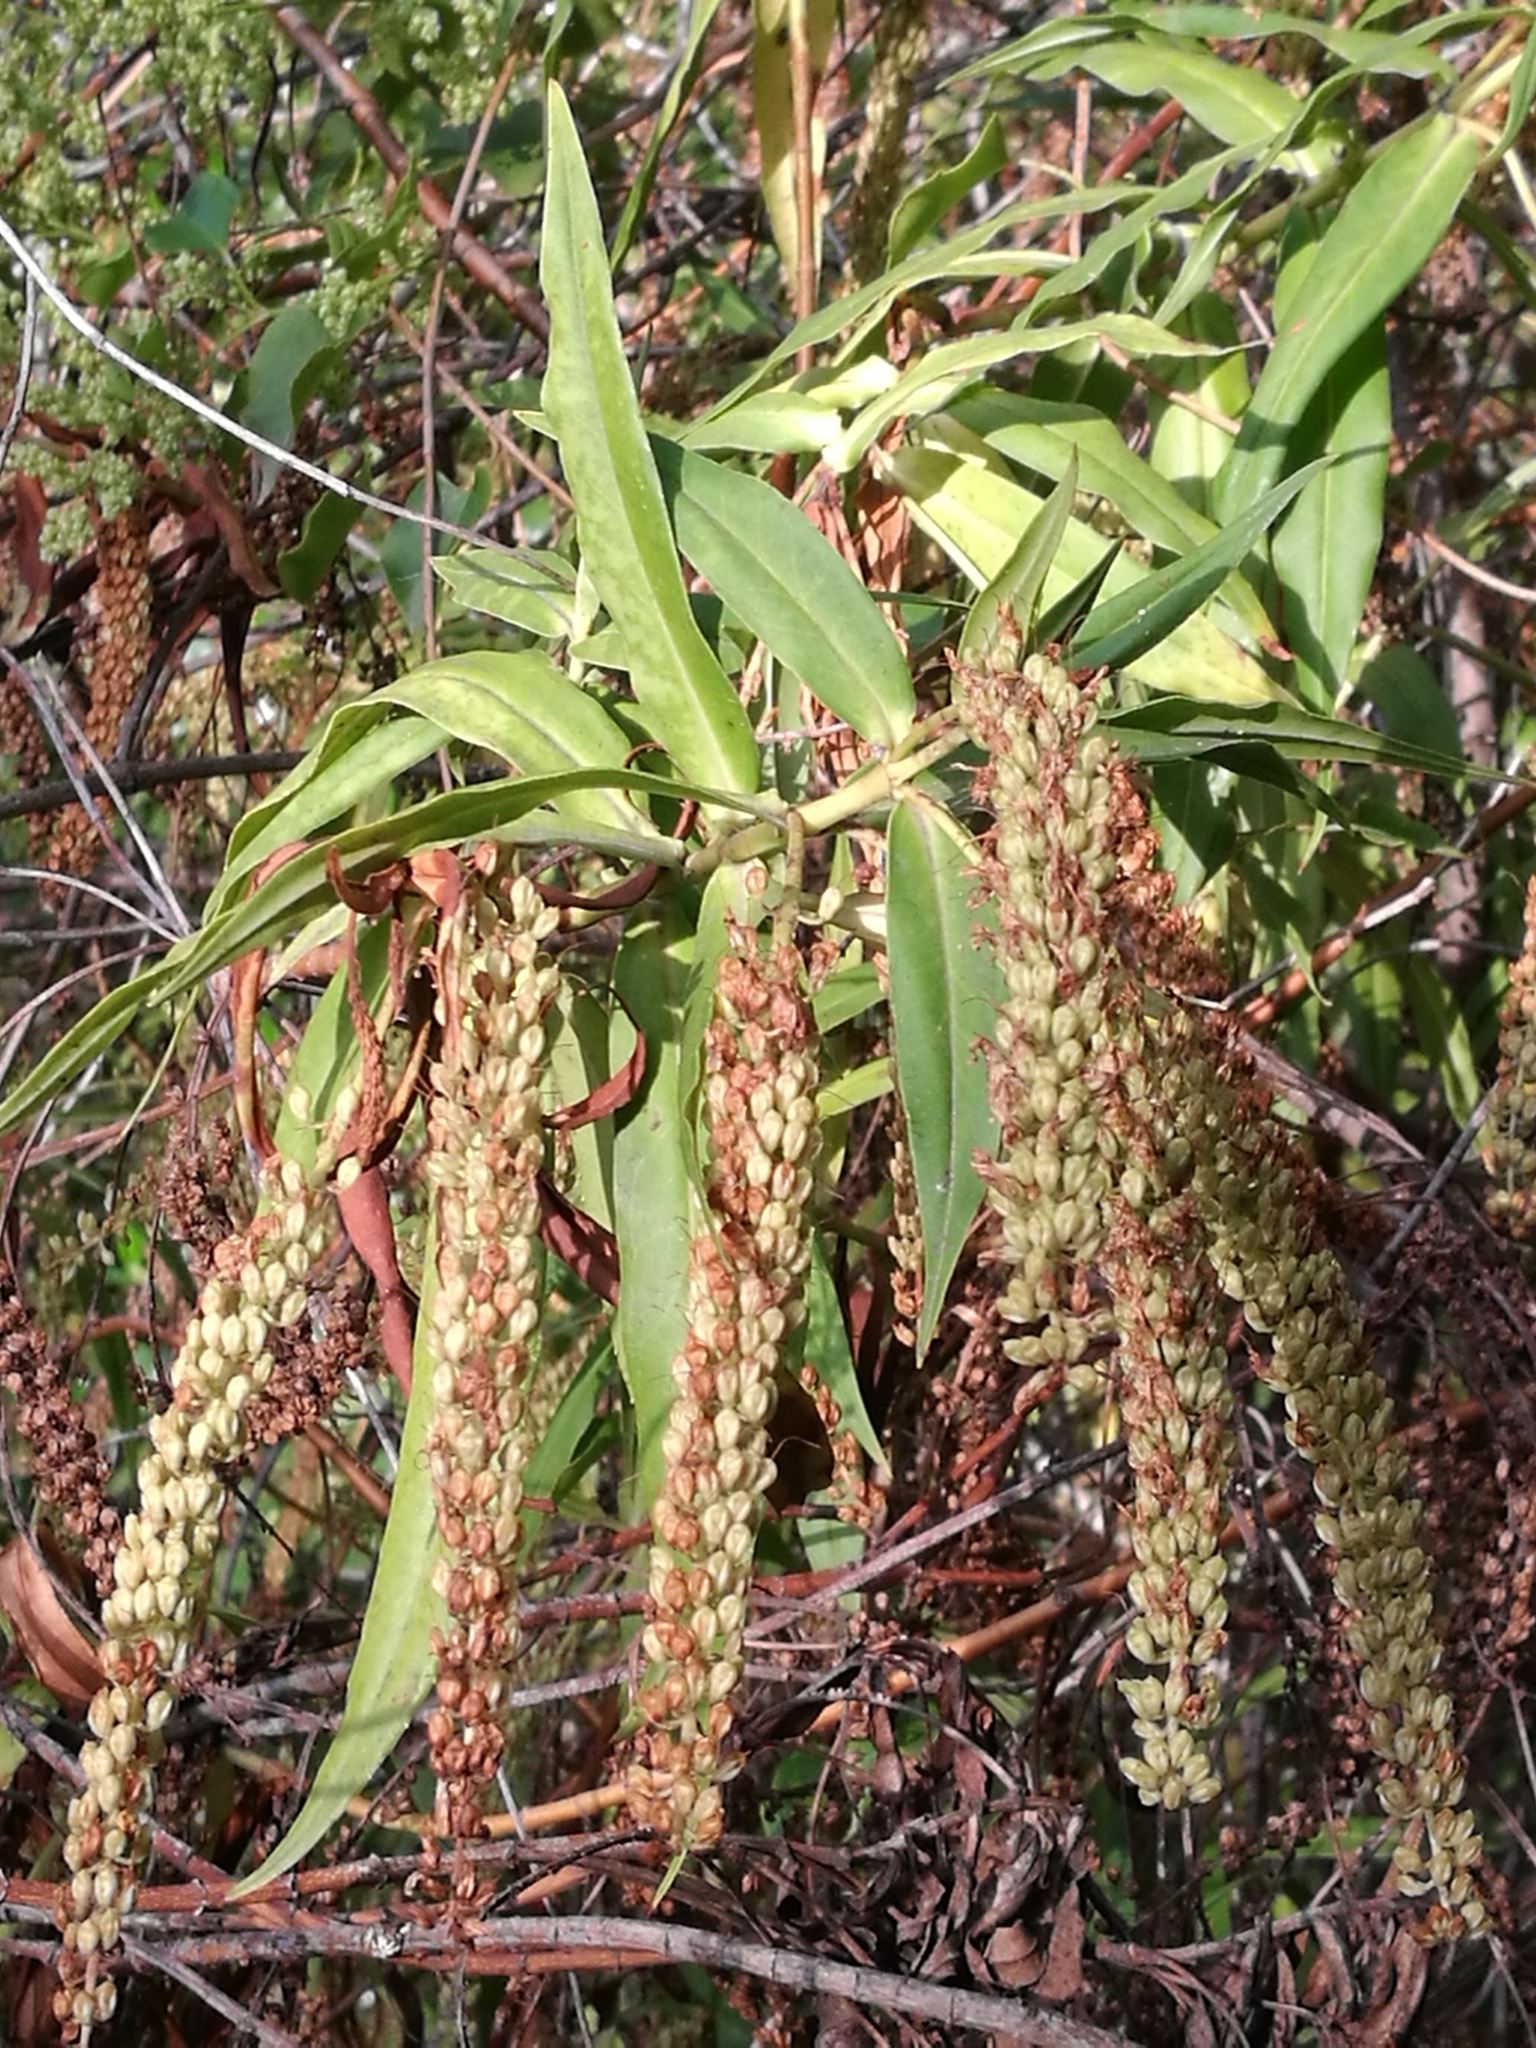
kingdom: Plantae
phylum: Tracheophyta
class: Magnoliopsida
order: Lamiales
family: Plantaginaceae
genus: Veronica
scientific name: Veronica salicifolia
